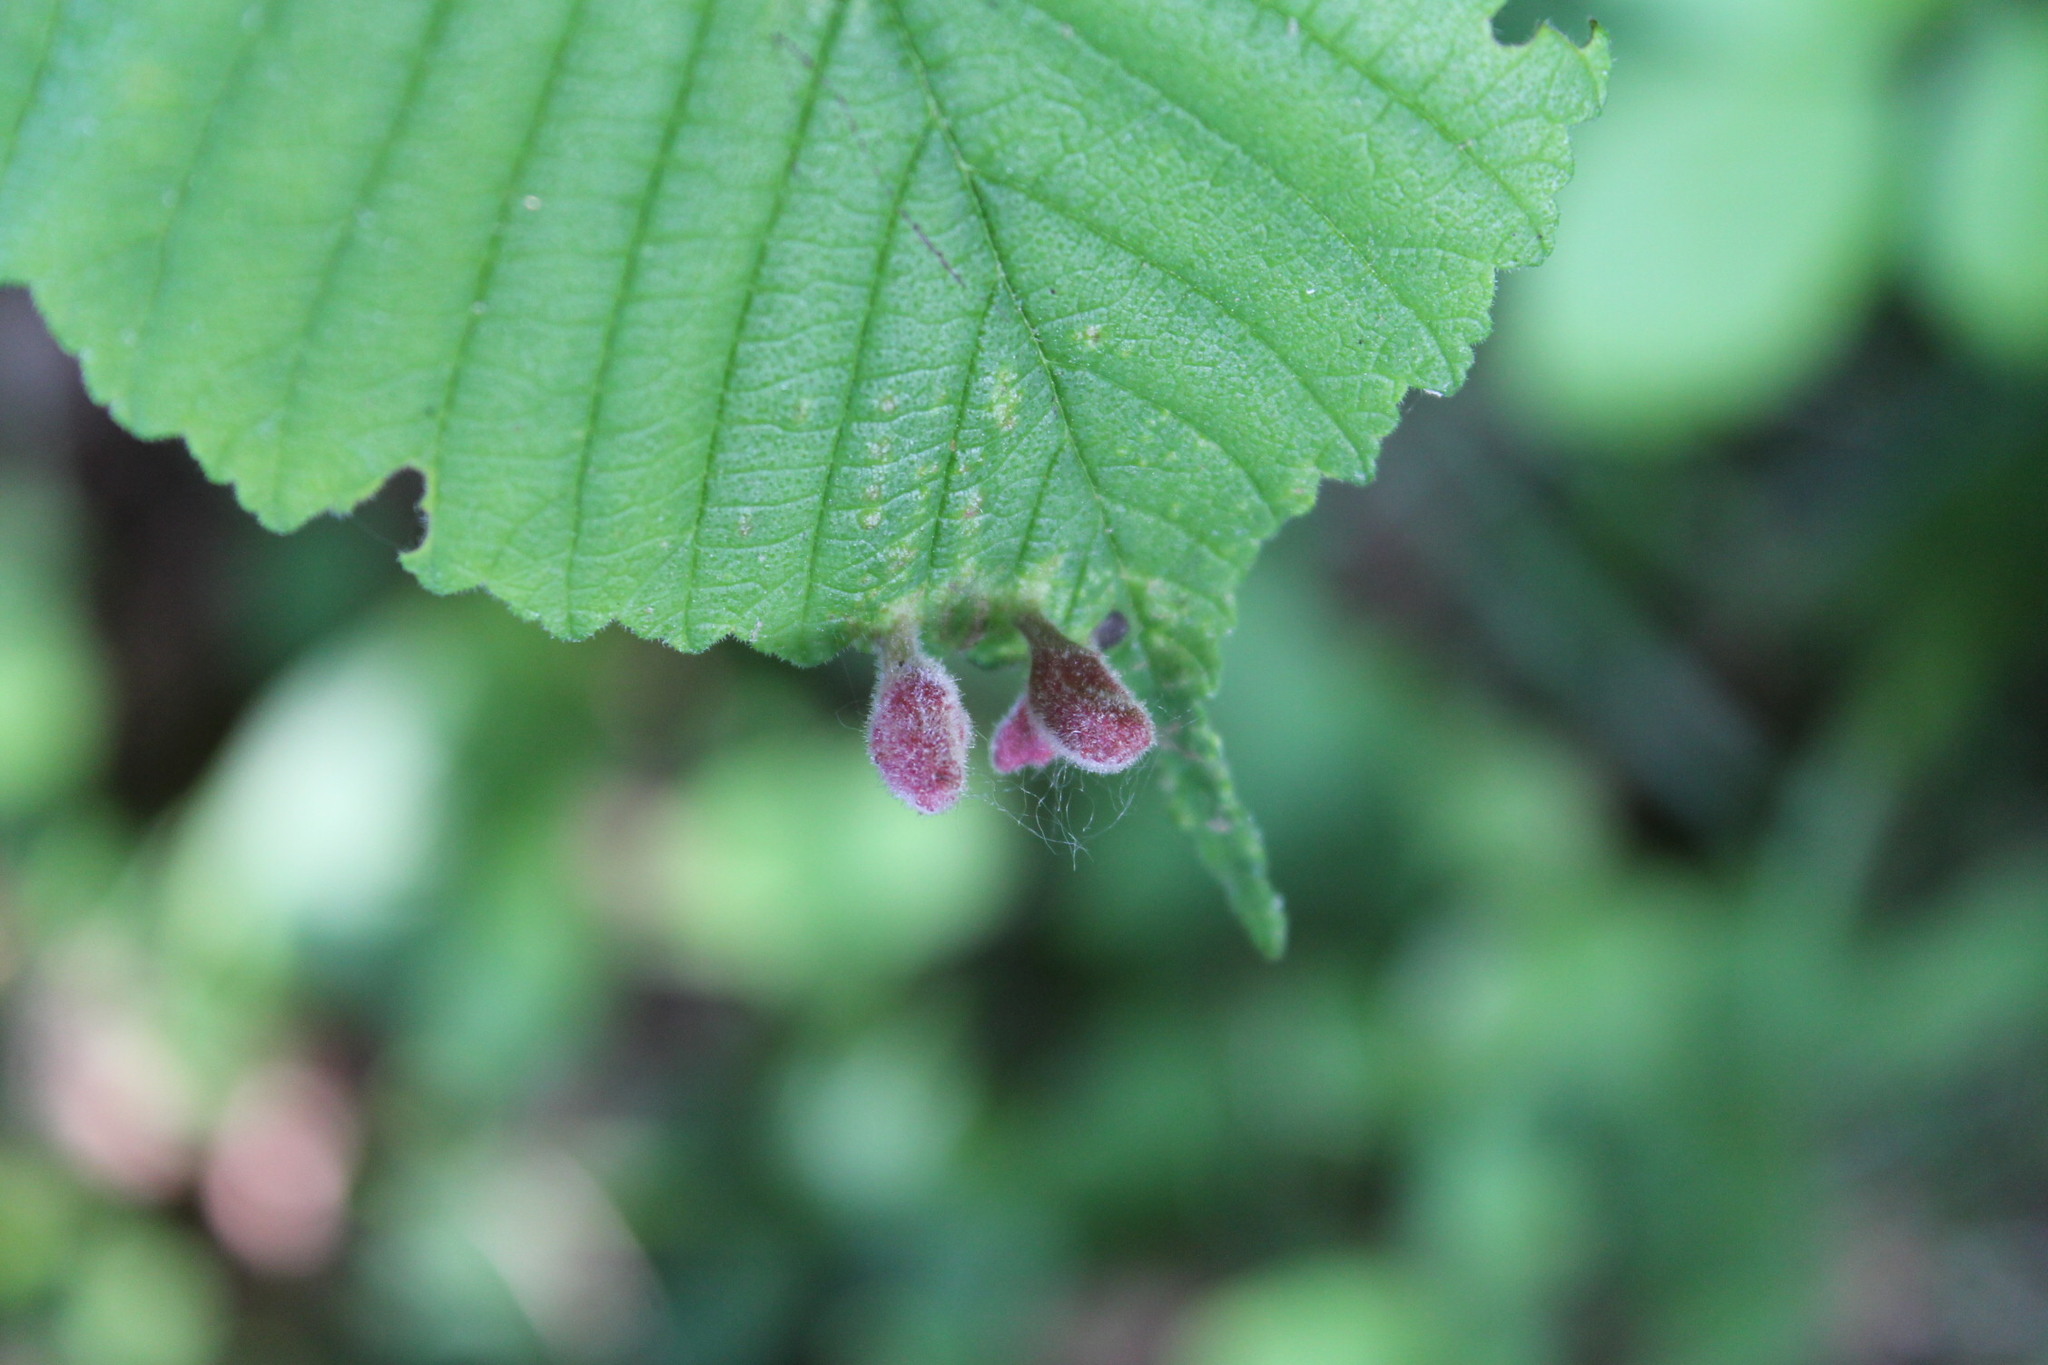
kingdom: Animalia
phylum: Arthropoda
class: Insecta
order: Hemiptera
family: Aphididae
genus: Tetraneura
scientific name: Tetraneura nigriabdominalis
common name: Aphid
